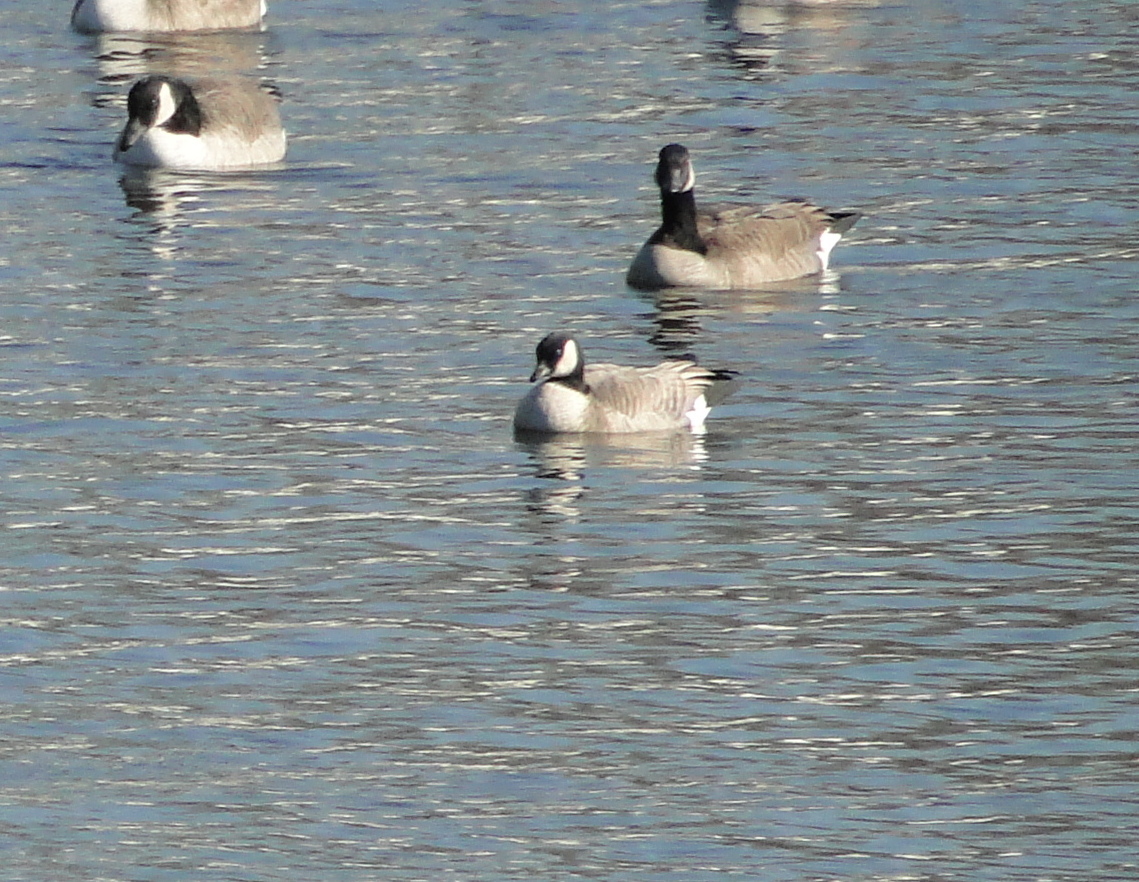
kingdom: Animalia
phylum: Chordata
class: Aves
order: Anseriformes
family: Anatidae
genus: Branta
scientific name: Branta hutchinsii
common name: Cackling goose
